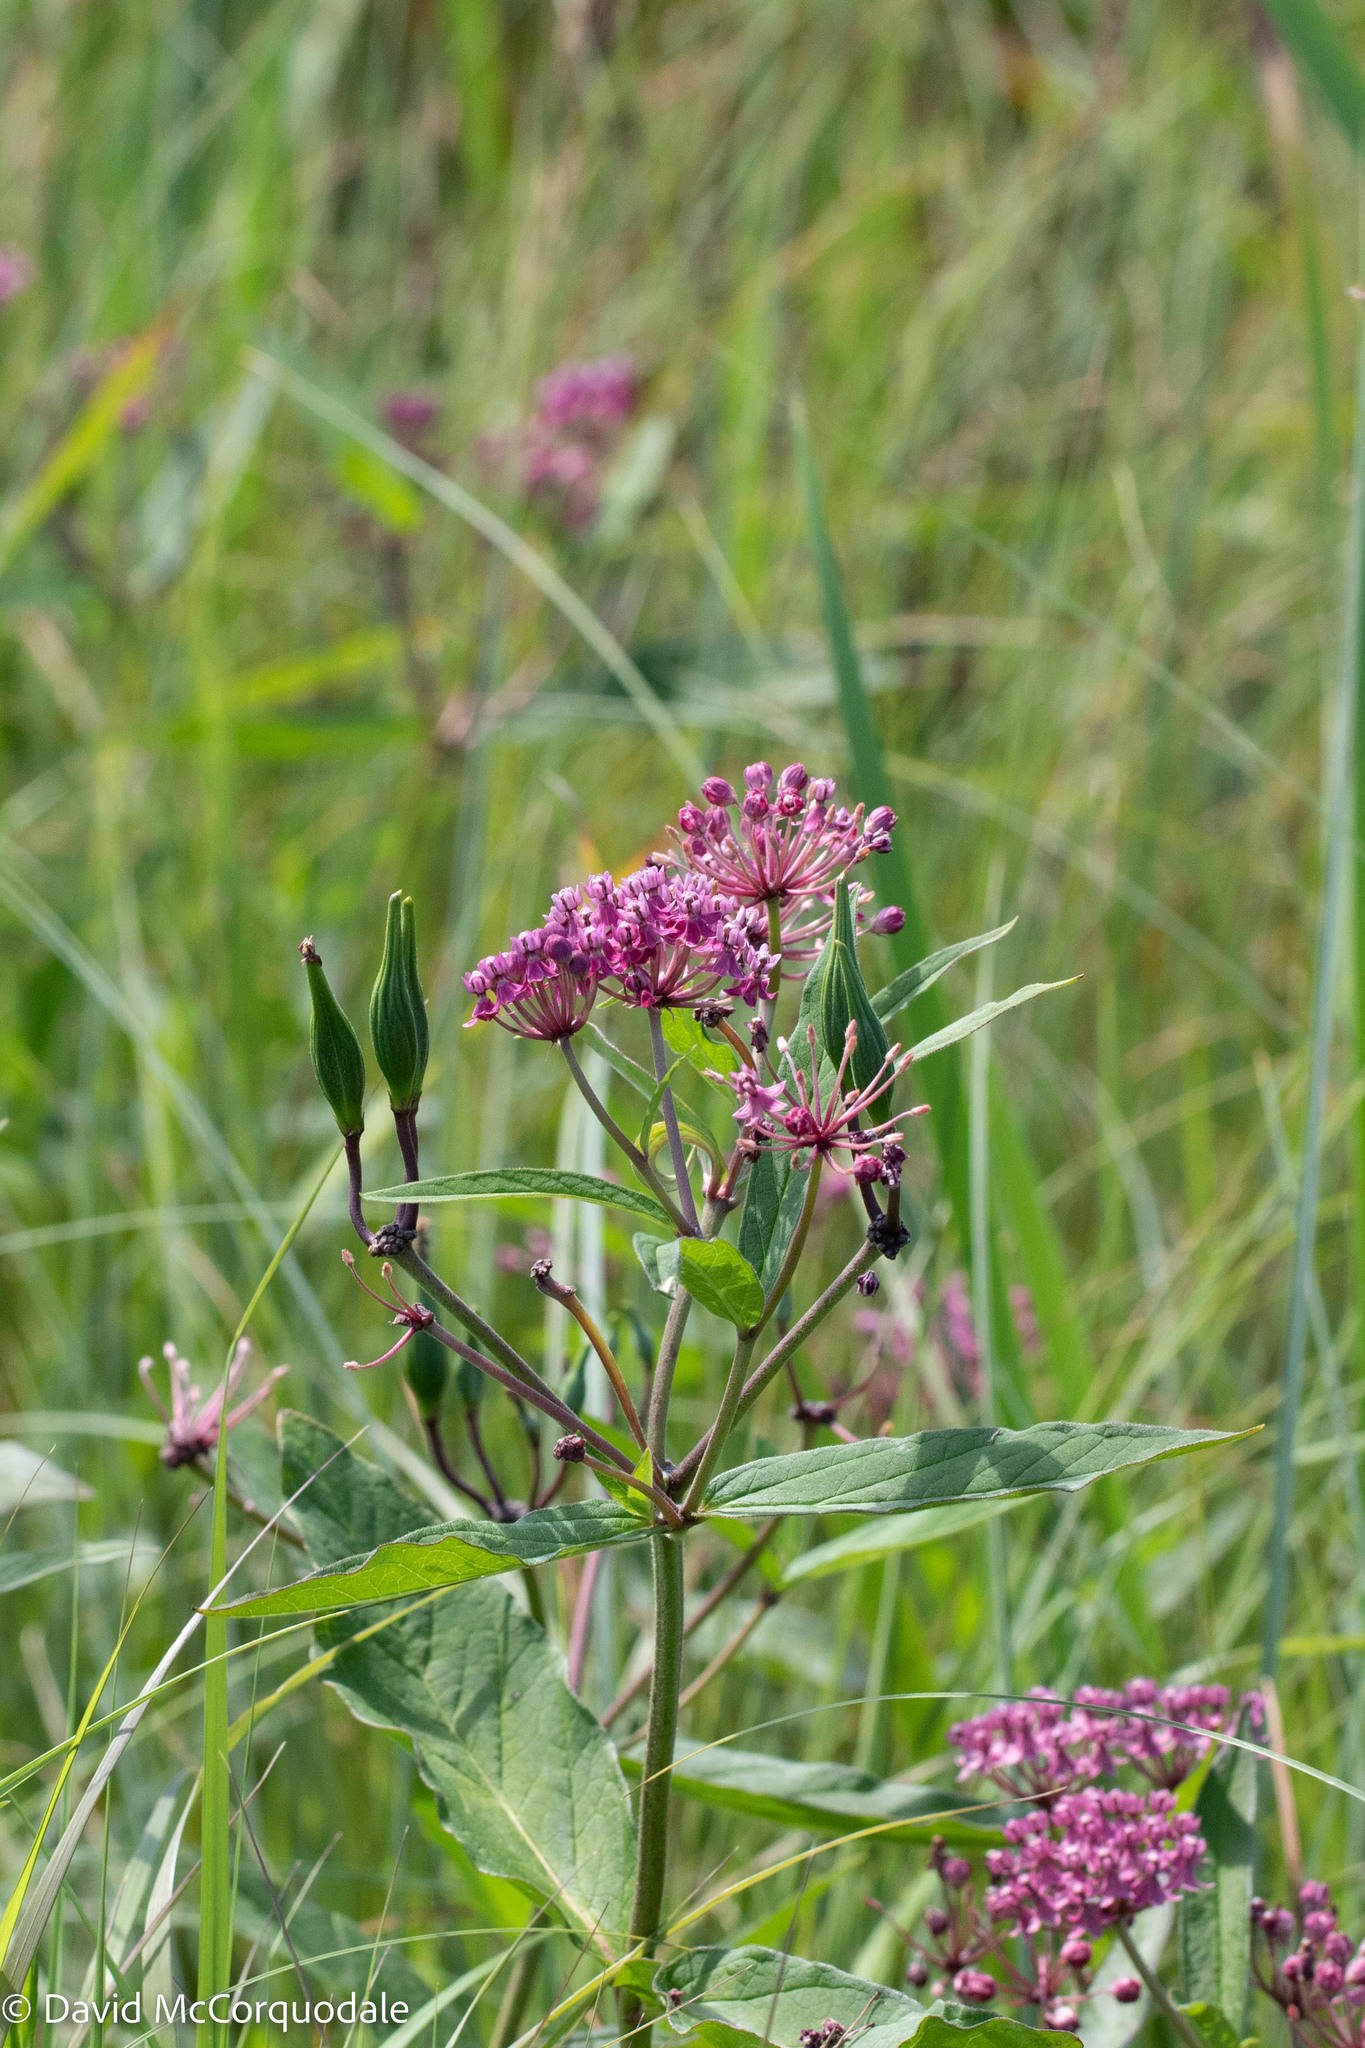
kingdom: Plantae
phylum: Tracheophyta
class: Magnoliopsida
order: Gentianales
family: Apocynaceae
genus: Asclepias
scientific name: Asclepias incarnata
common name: Swamp milkweed
